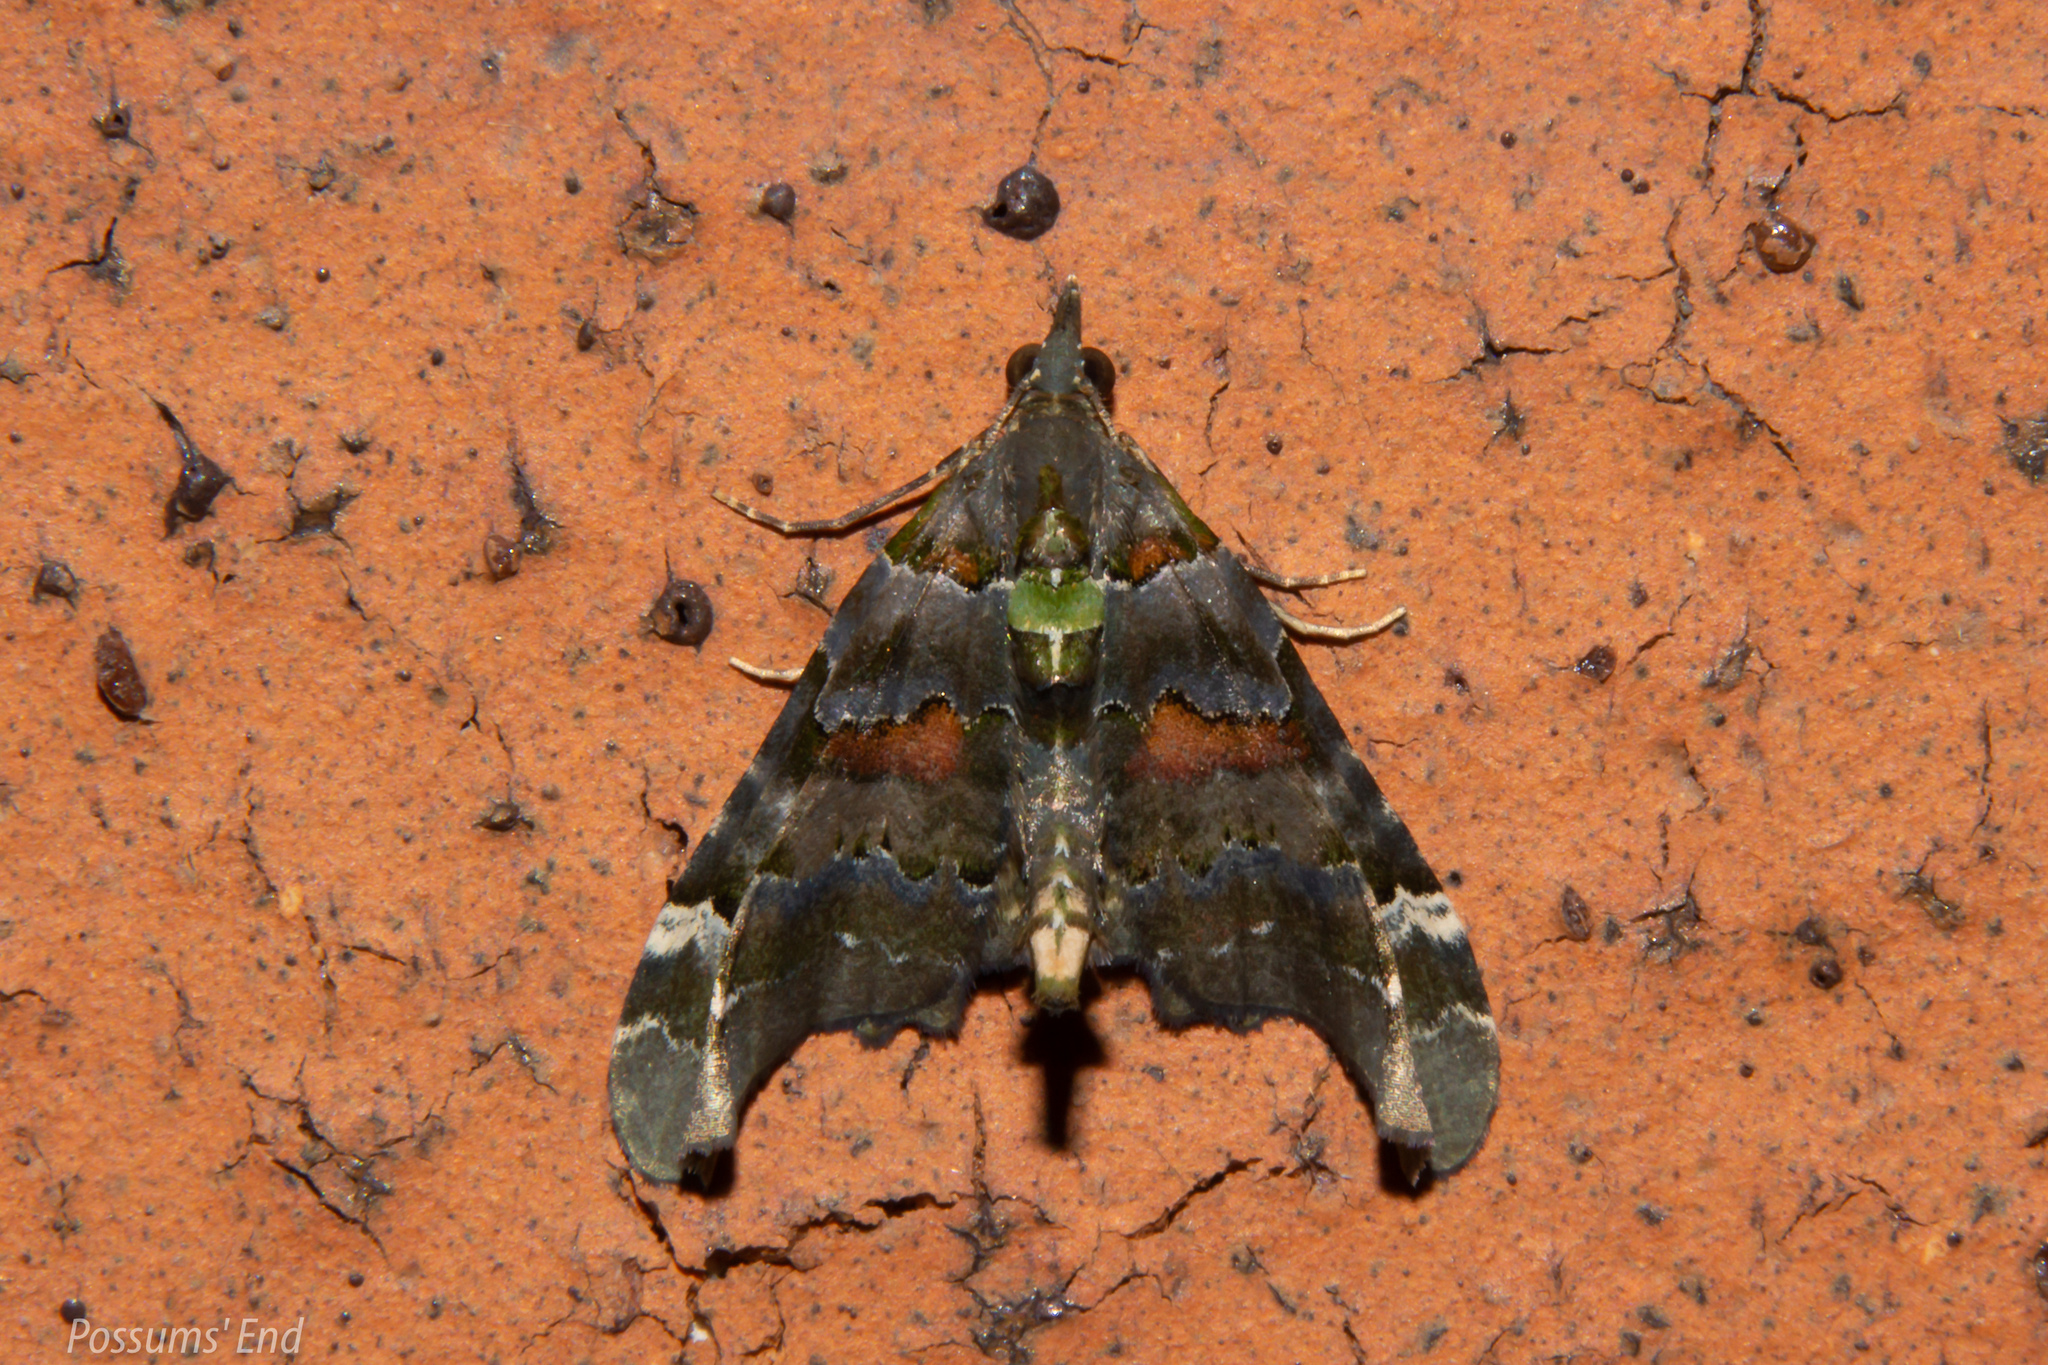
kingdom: Animalia
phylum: Arthropoda
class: Insecta
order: Lepidoptera
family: Geometridae
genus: Elvia
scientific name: Elvia glaucata
